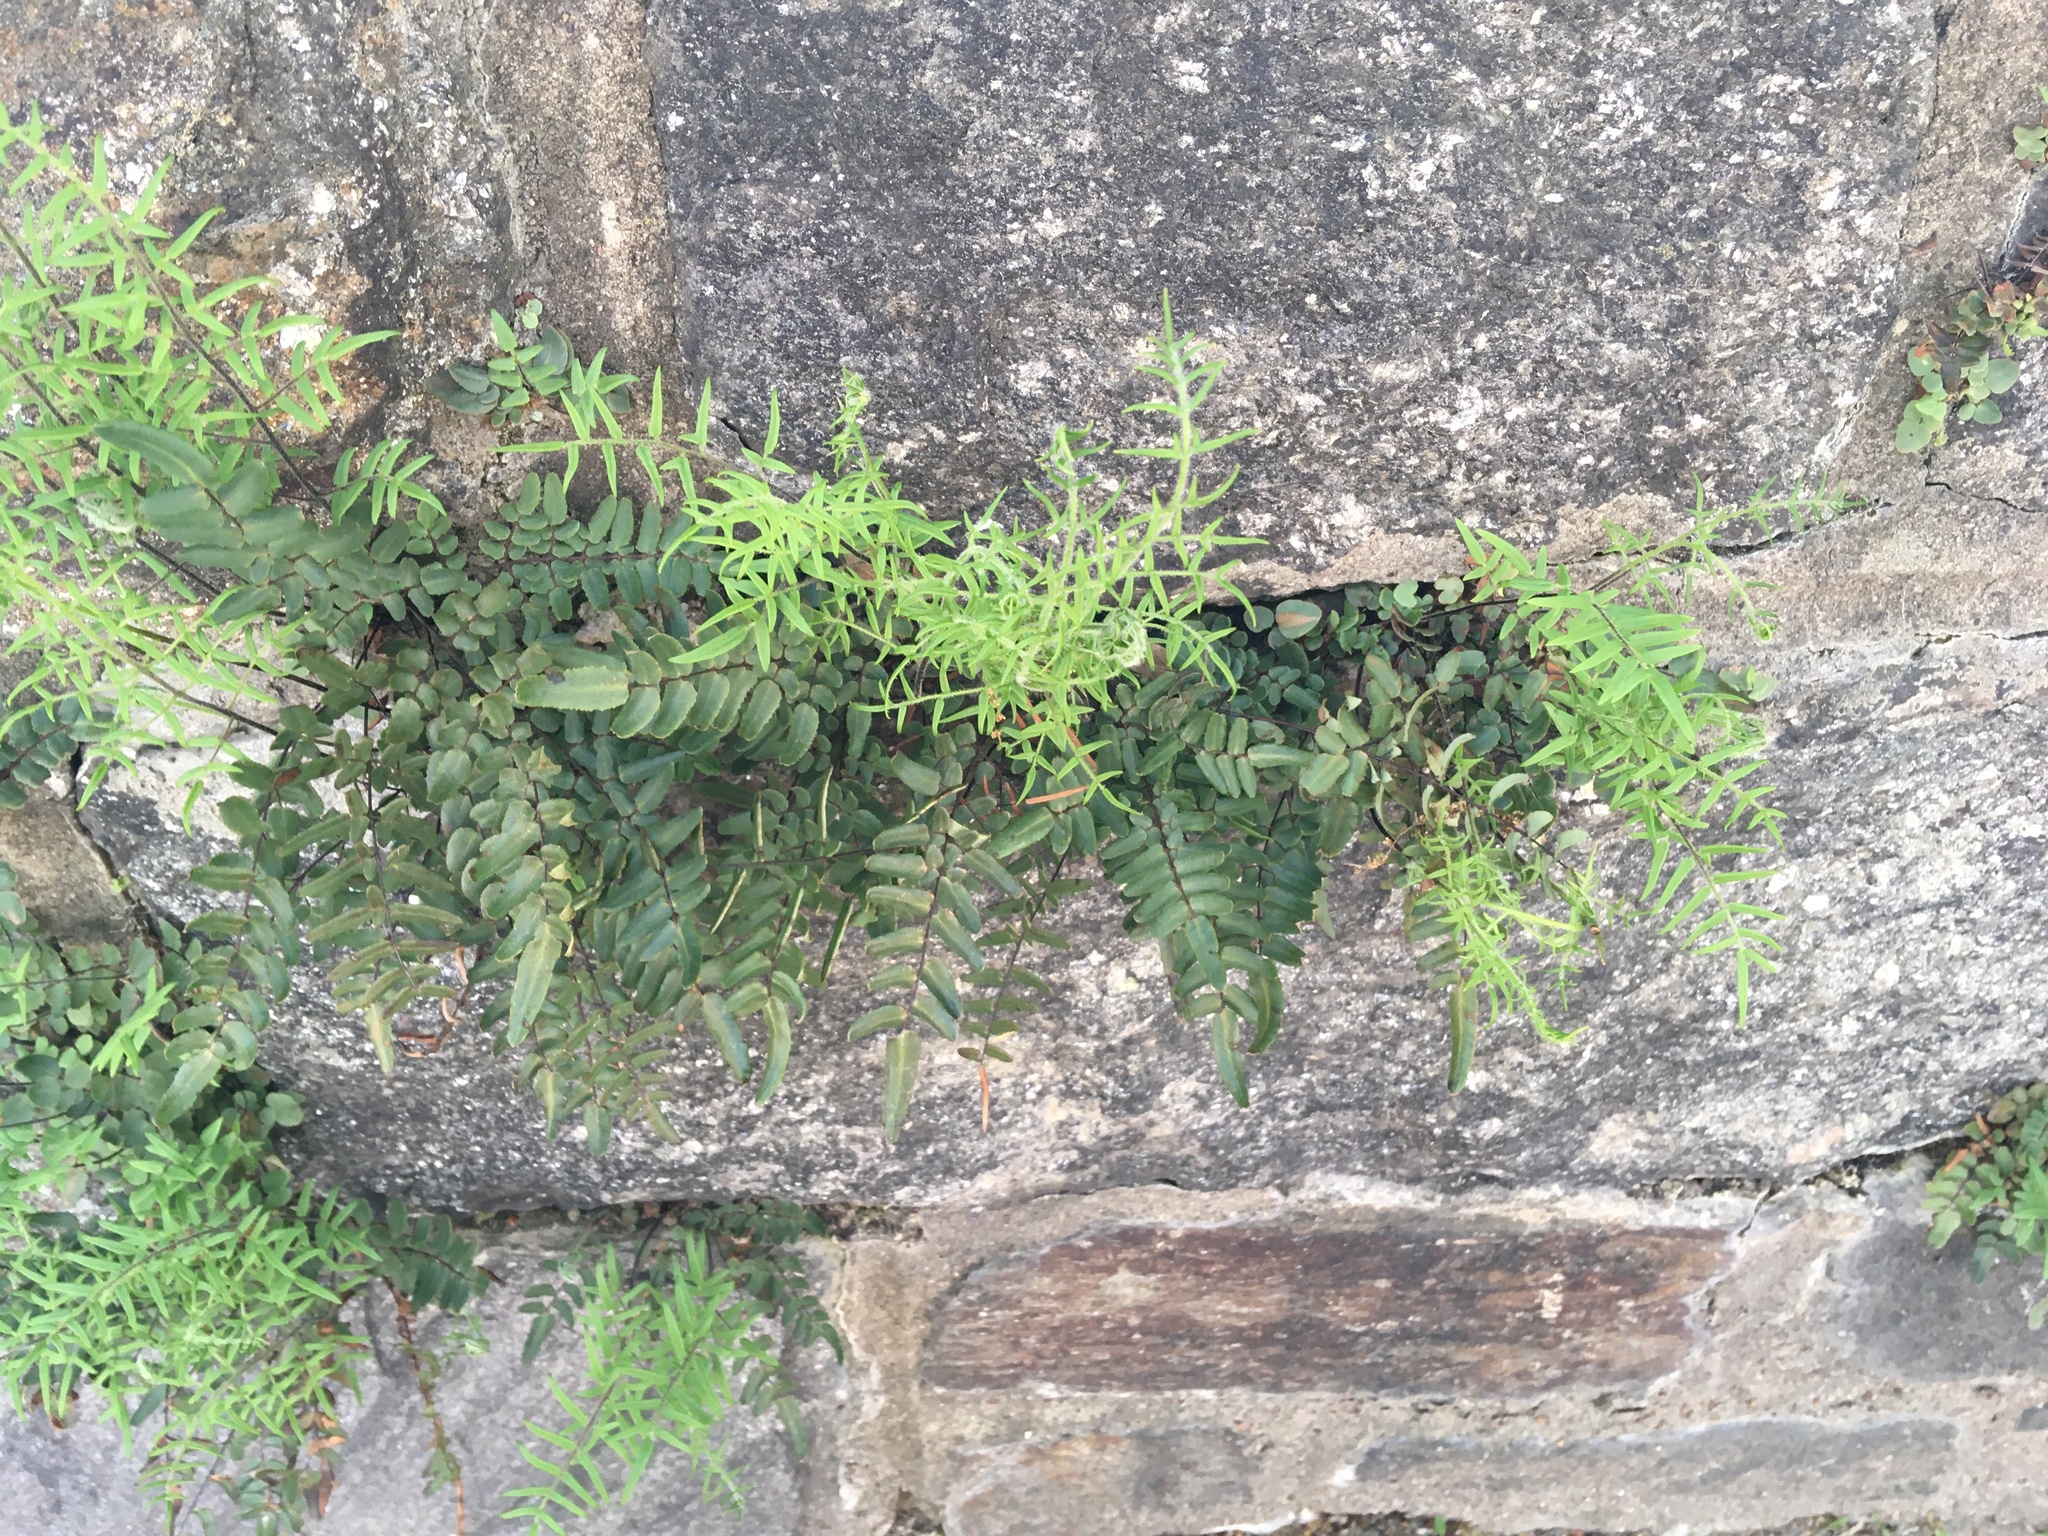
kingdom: Plantae
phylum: Tracheophyta
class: Polypodiopsida
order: Polypodiales
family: Pteridaceae
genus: Pellaea
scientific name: Pellaea atropurpurea
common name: Hairy cliffbrake
